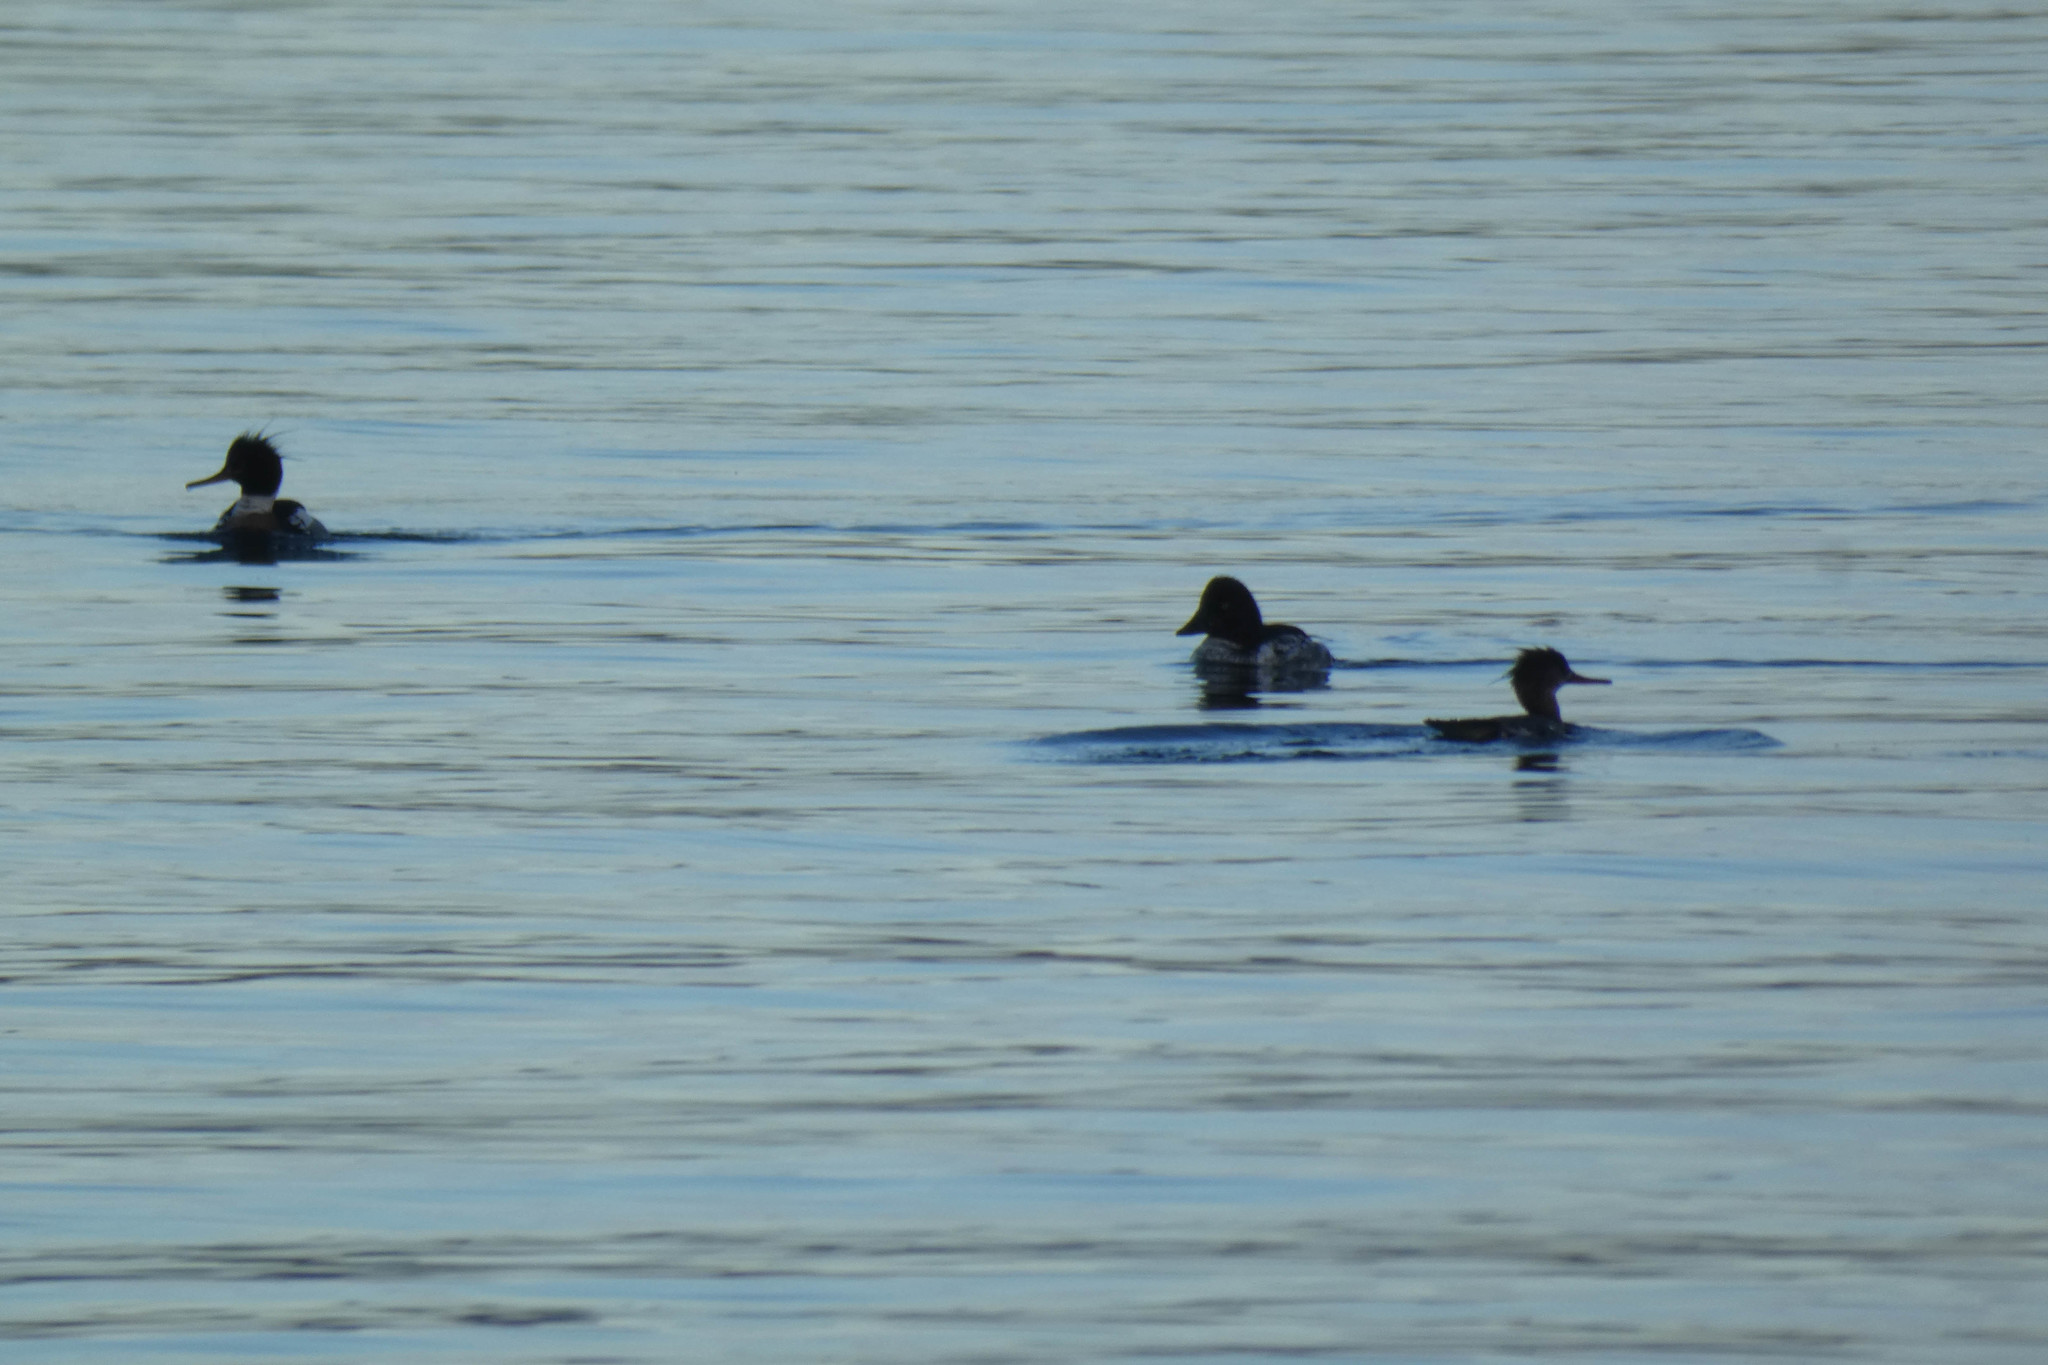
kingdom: Animalia
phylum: Chordata
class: Aves
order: Anseriformes
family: Anatidae
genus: Bucephala
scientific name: Bucephala clangula
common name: Common goldeneye
